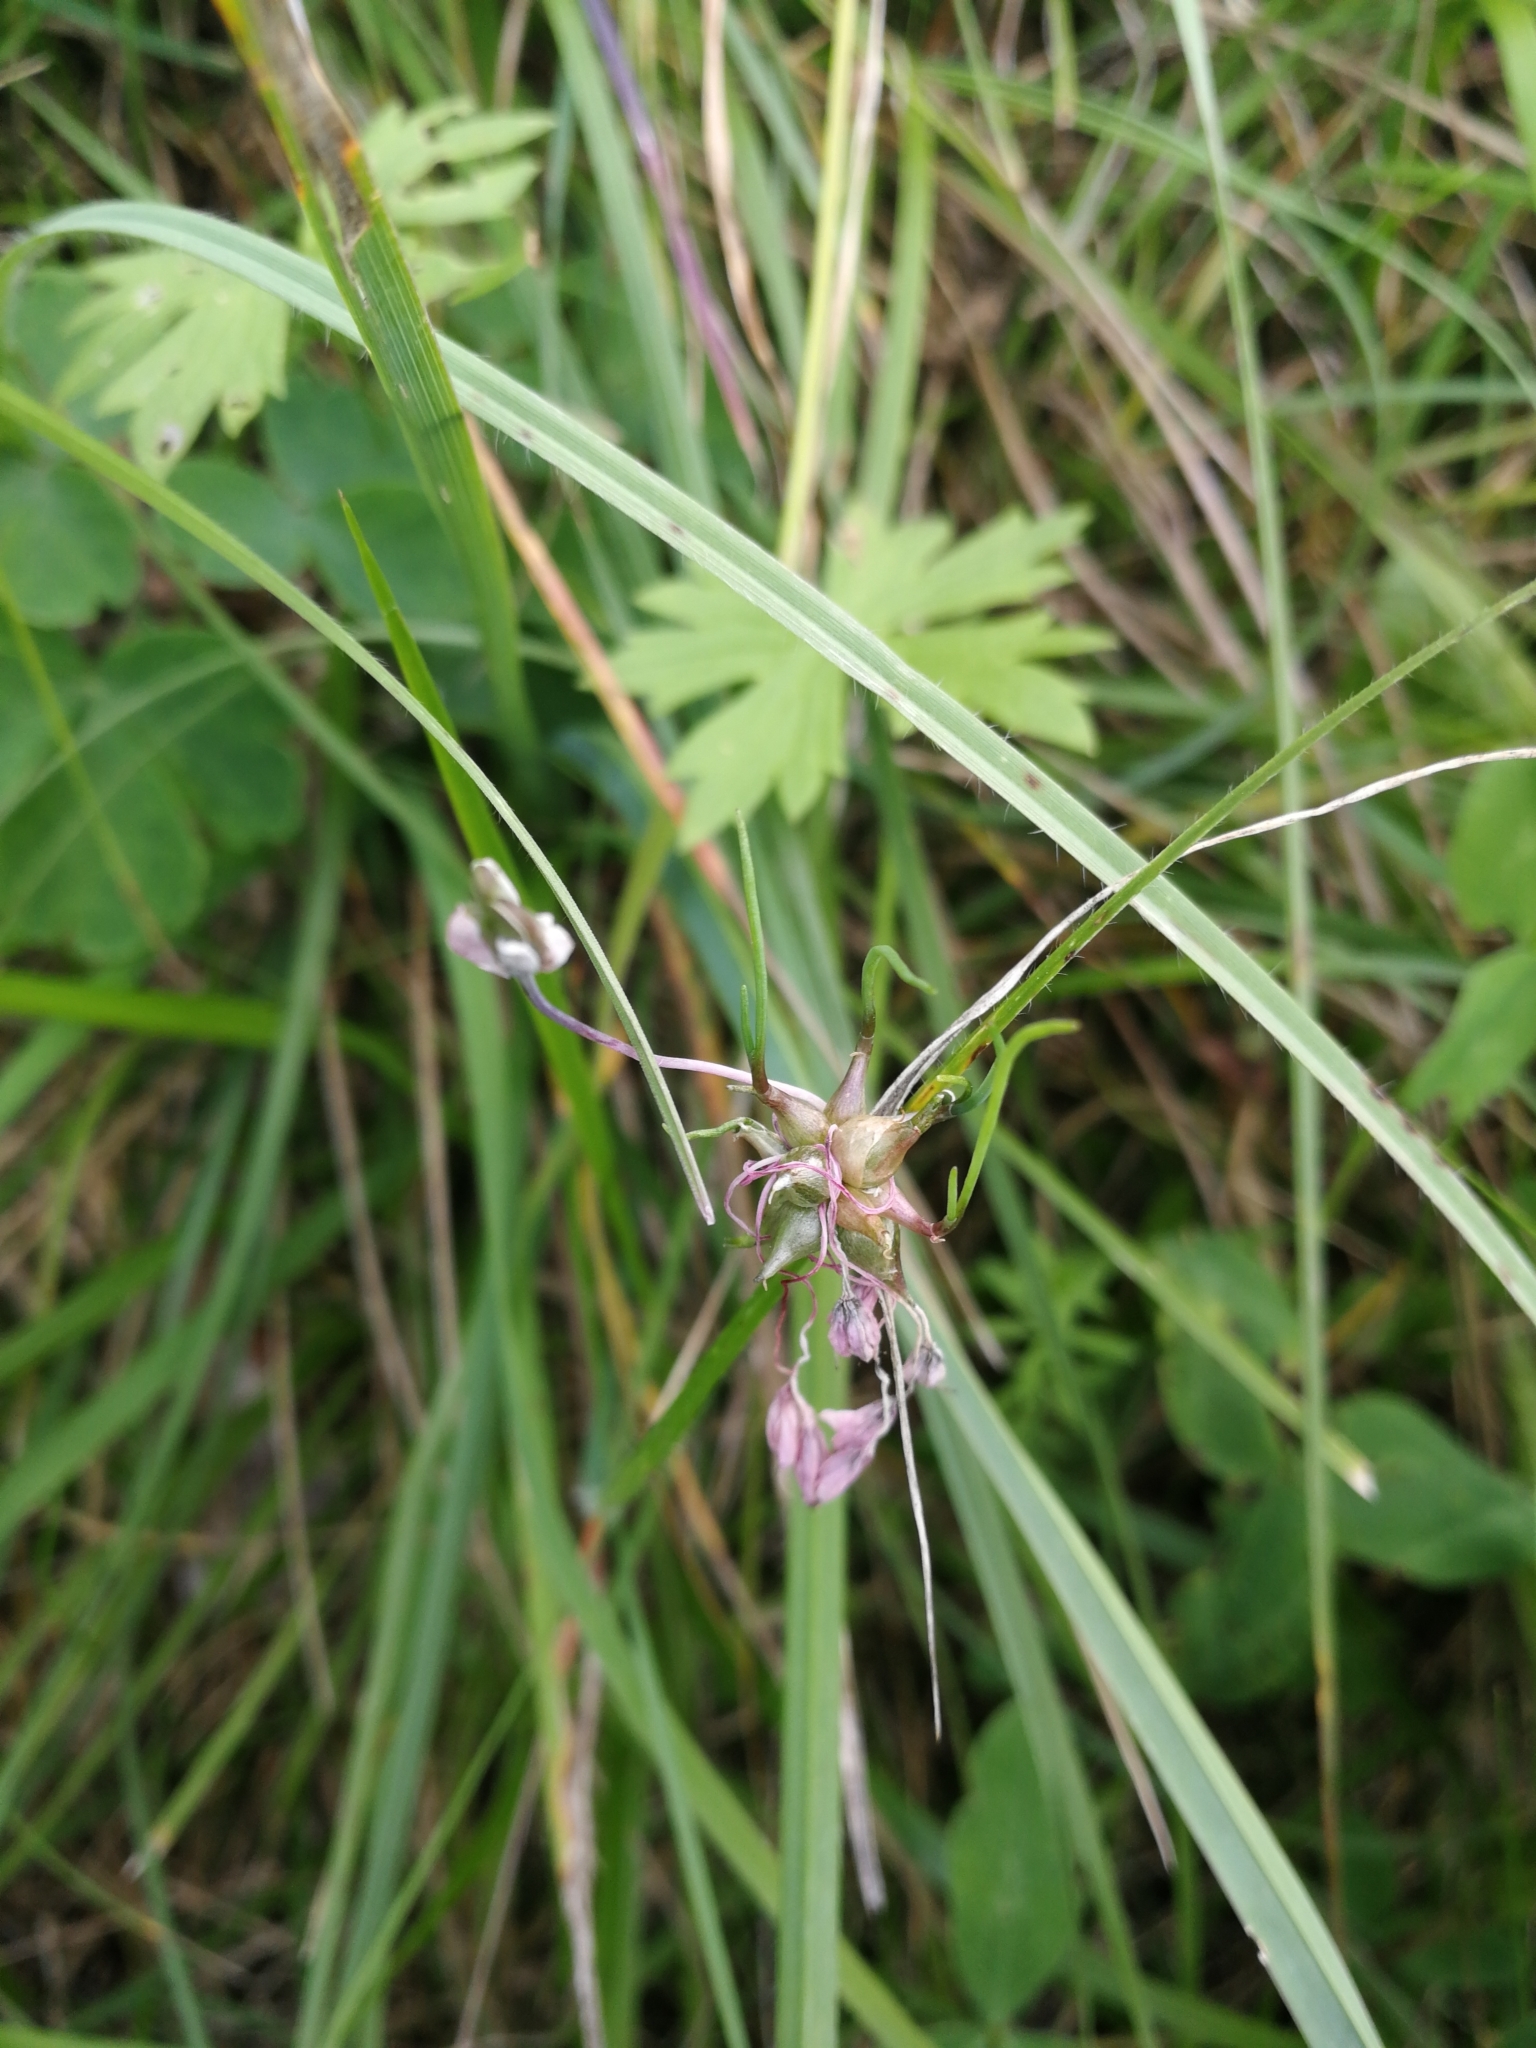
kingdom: Plantae
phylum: Tracheophyta
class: Liliopsida
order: Asparagales
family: Amaryllidaceae
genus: Allium
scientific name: Allium carinatum
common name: Keeled garlic
